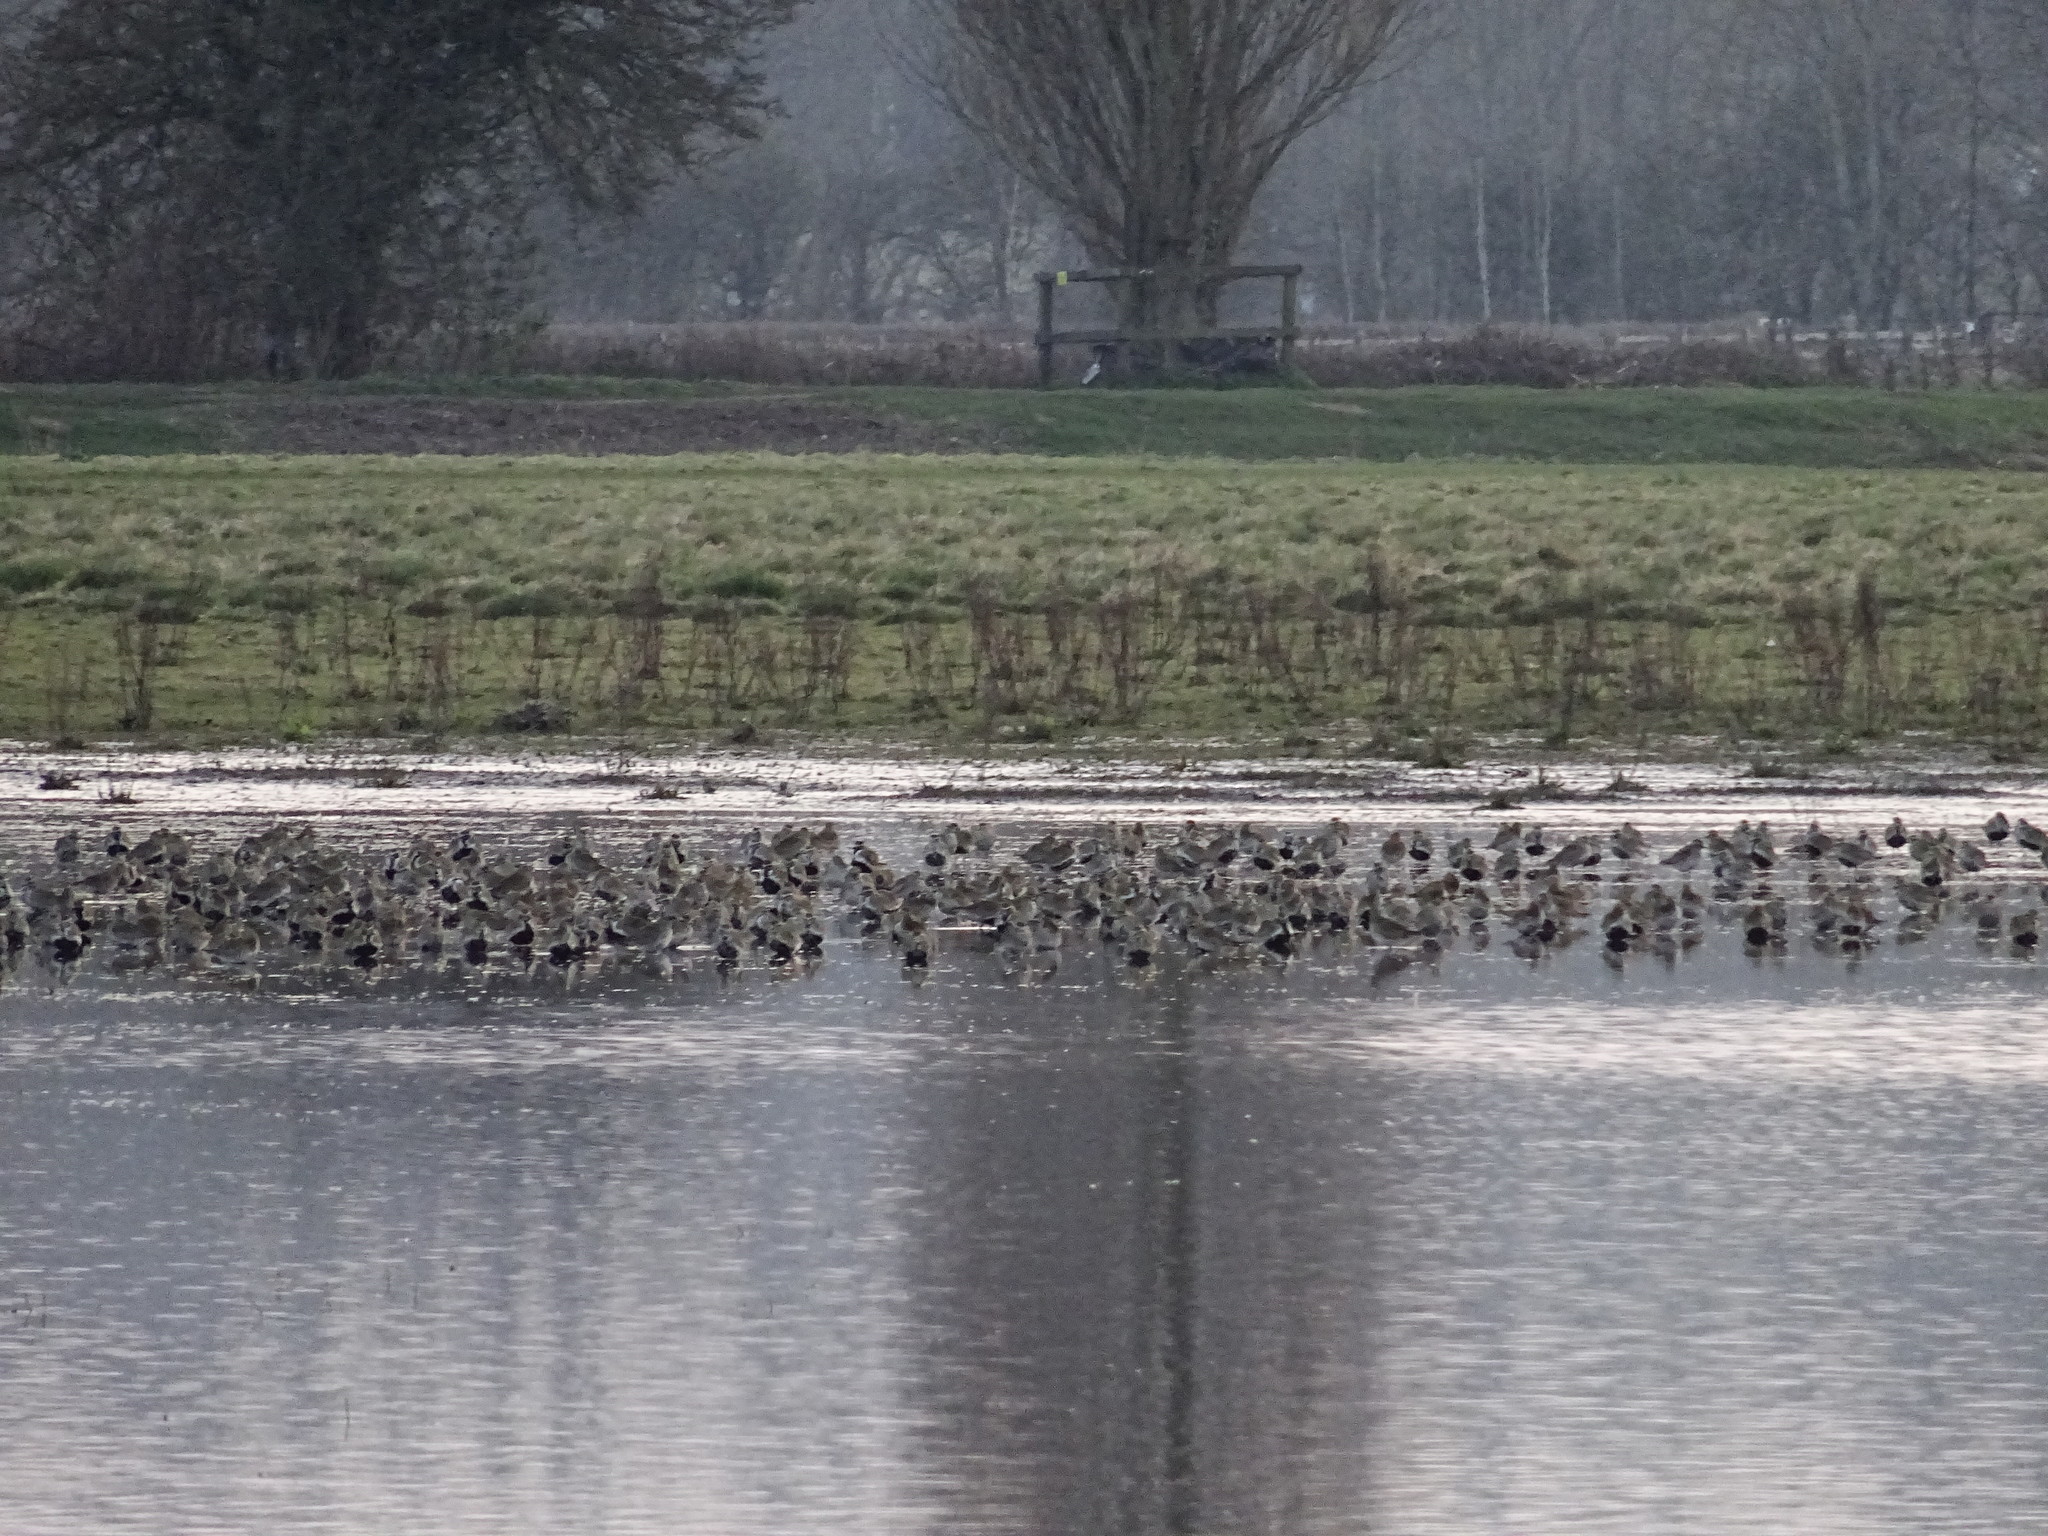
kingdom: Animalia
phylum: Chordata
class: Aves
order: Charadriiformes
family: Charadriidae
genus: Pluvialis
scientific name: Pluvialis apricaria
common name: European golden plover
